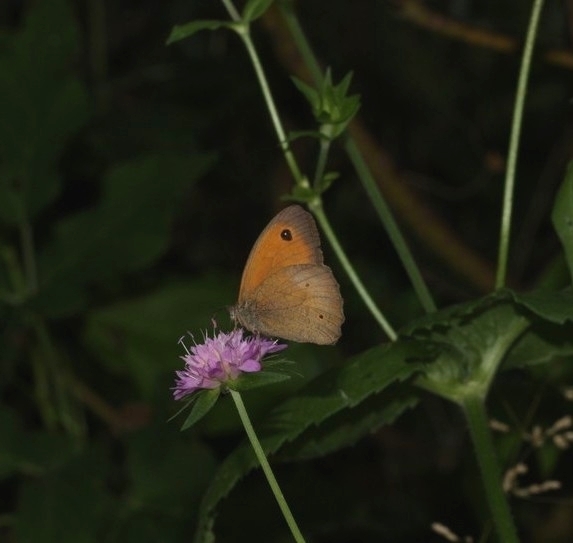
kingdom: Animalia
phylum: Arthropoda
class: Insecta
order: Lepidoptera
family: Nymphalidae
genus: Maniola
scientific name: Maniola jurtina
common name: Meadow brown
